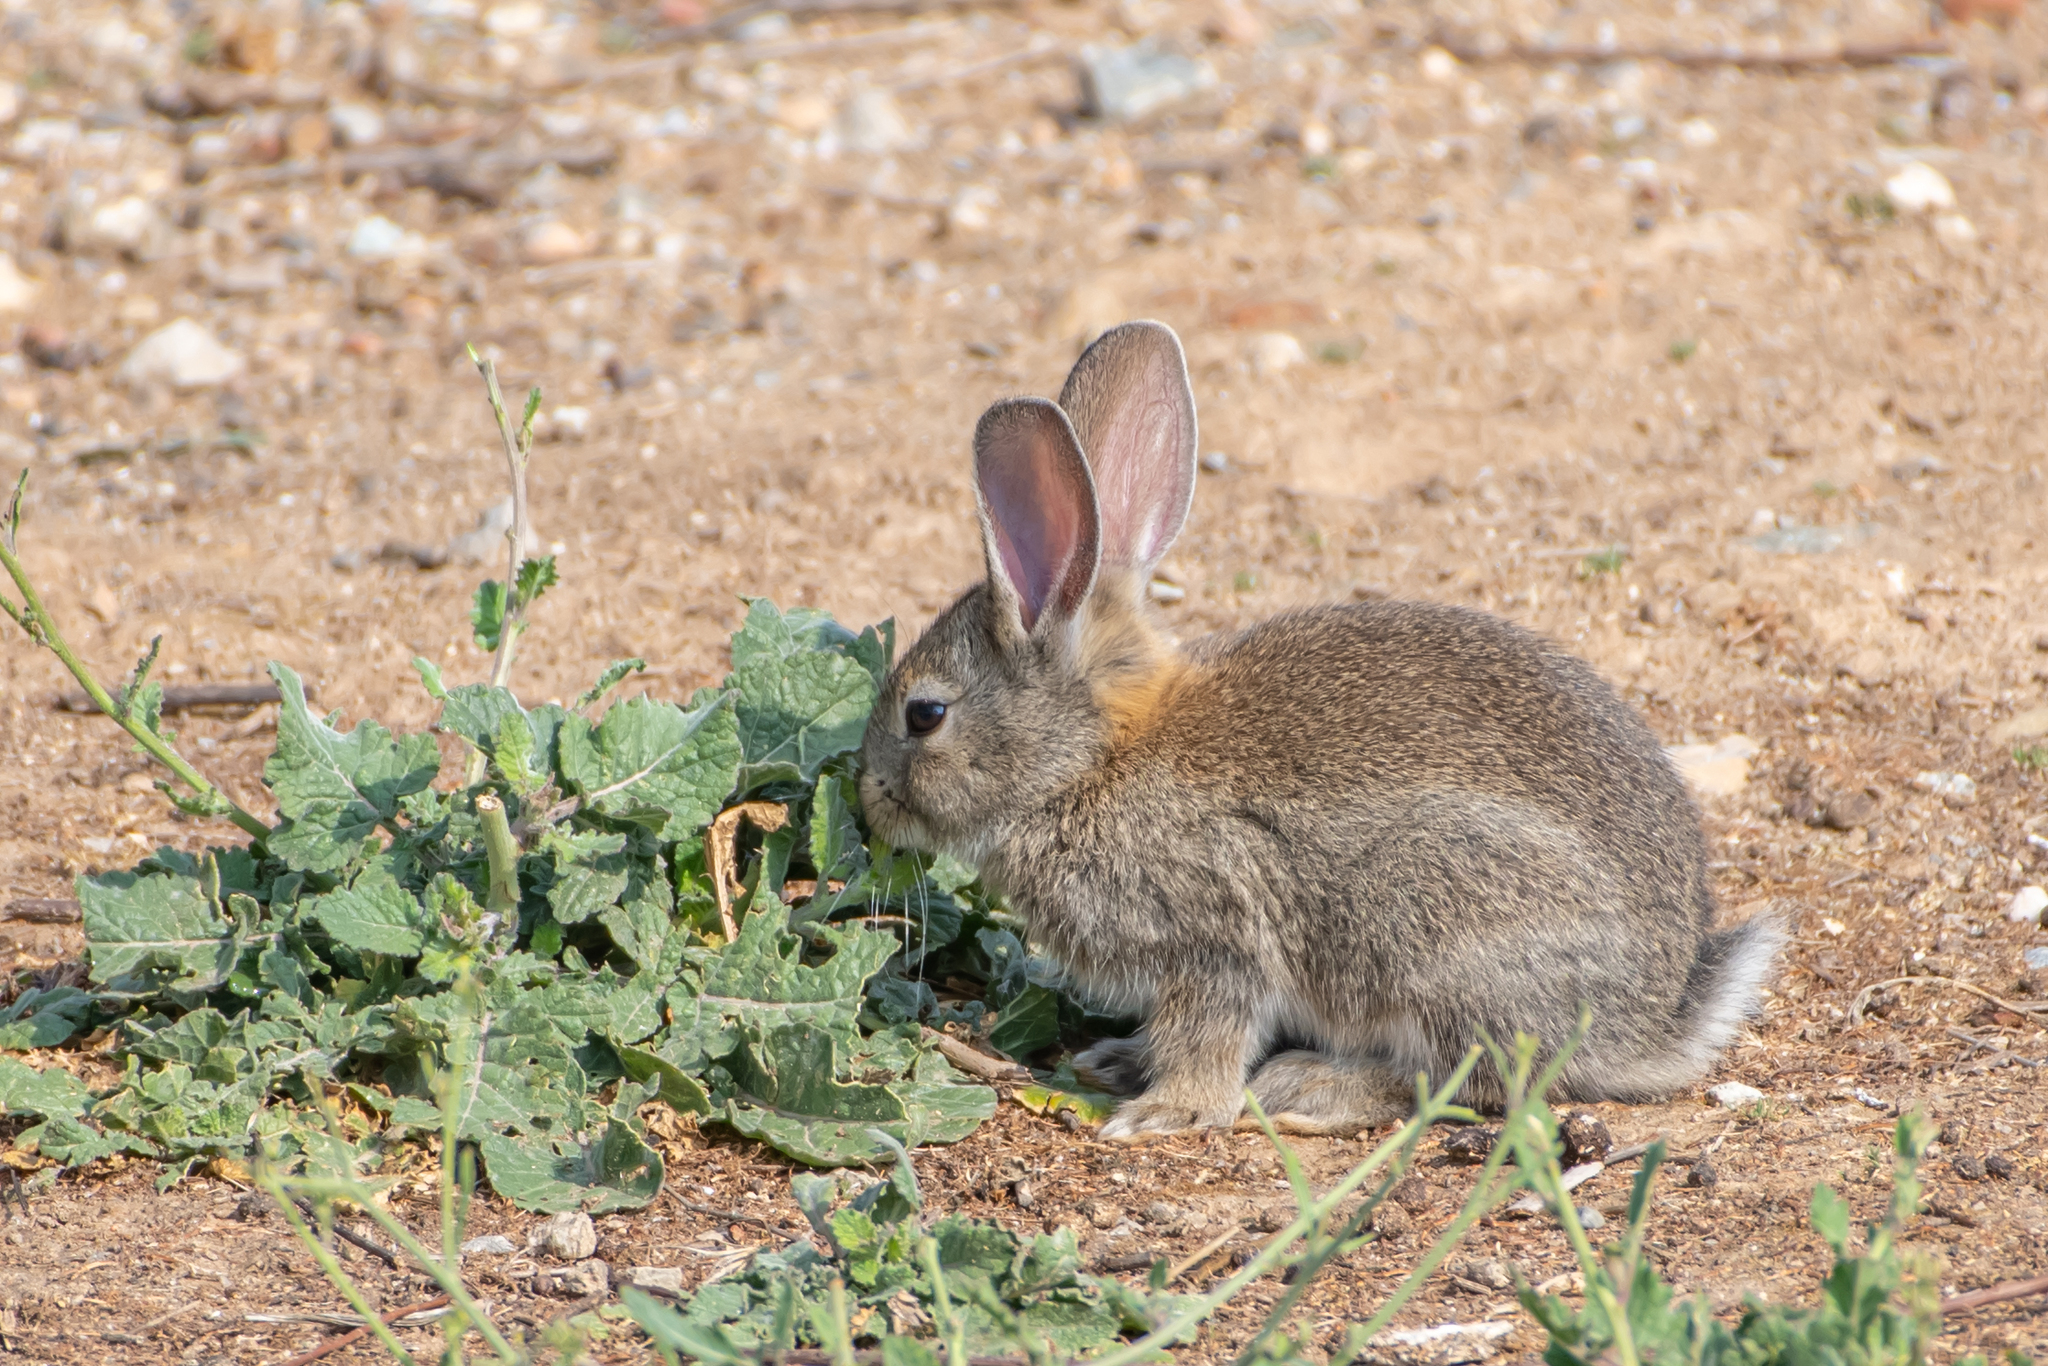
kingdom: Animalia
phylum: Chordata
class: Mammalia
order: Lagomorpha
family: Leporidae
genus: Oryctolagus
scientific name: Oryctolagus cuniculus
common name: European rabbit
